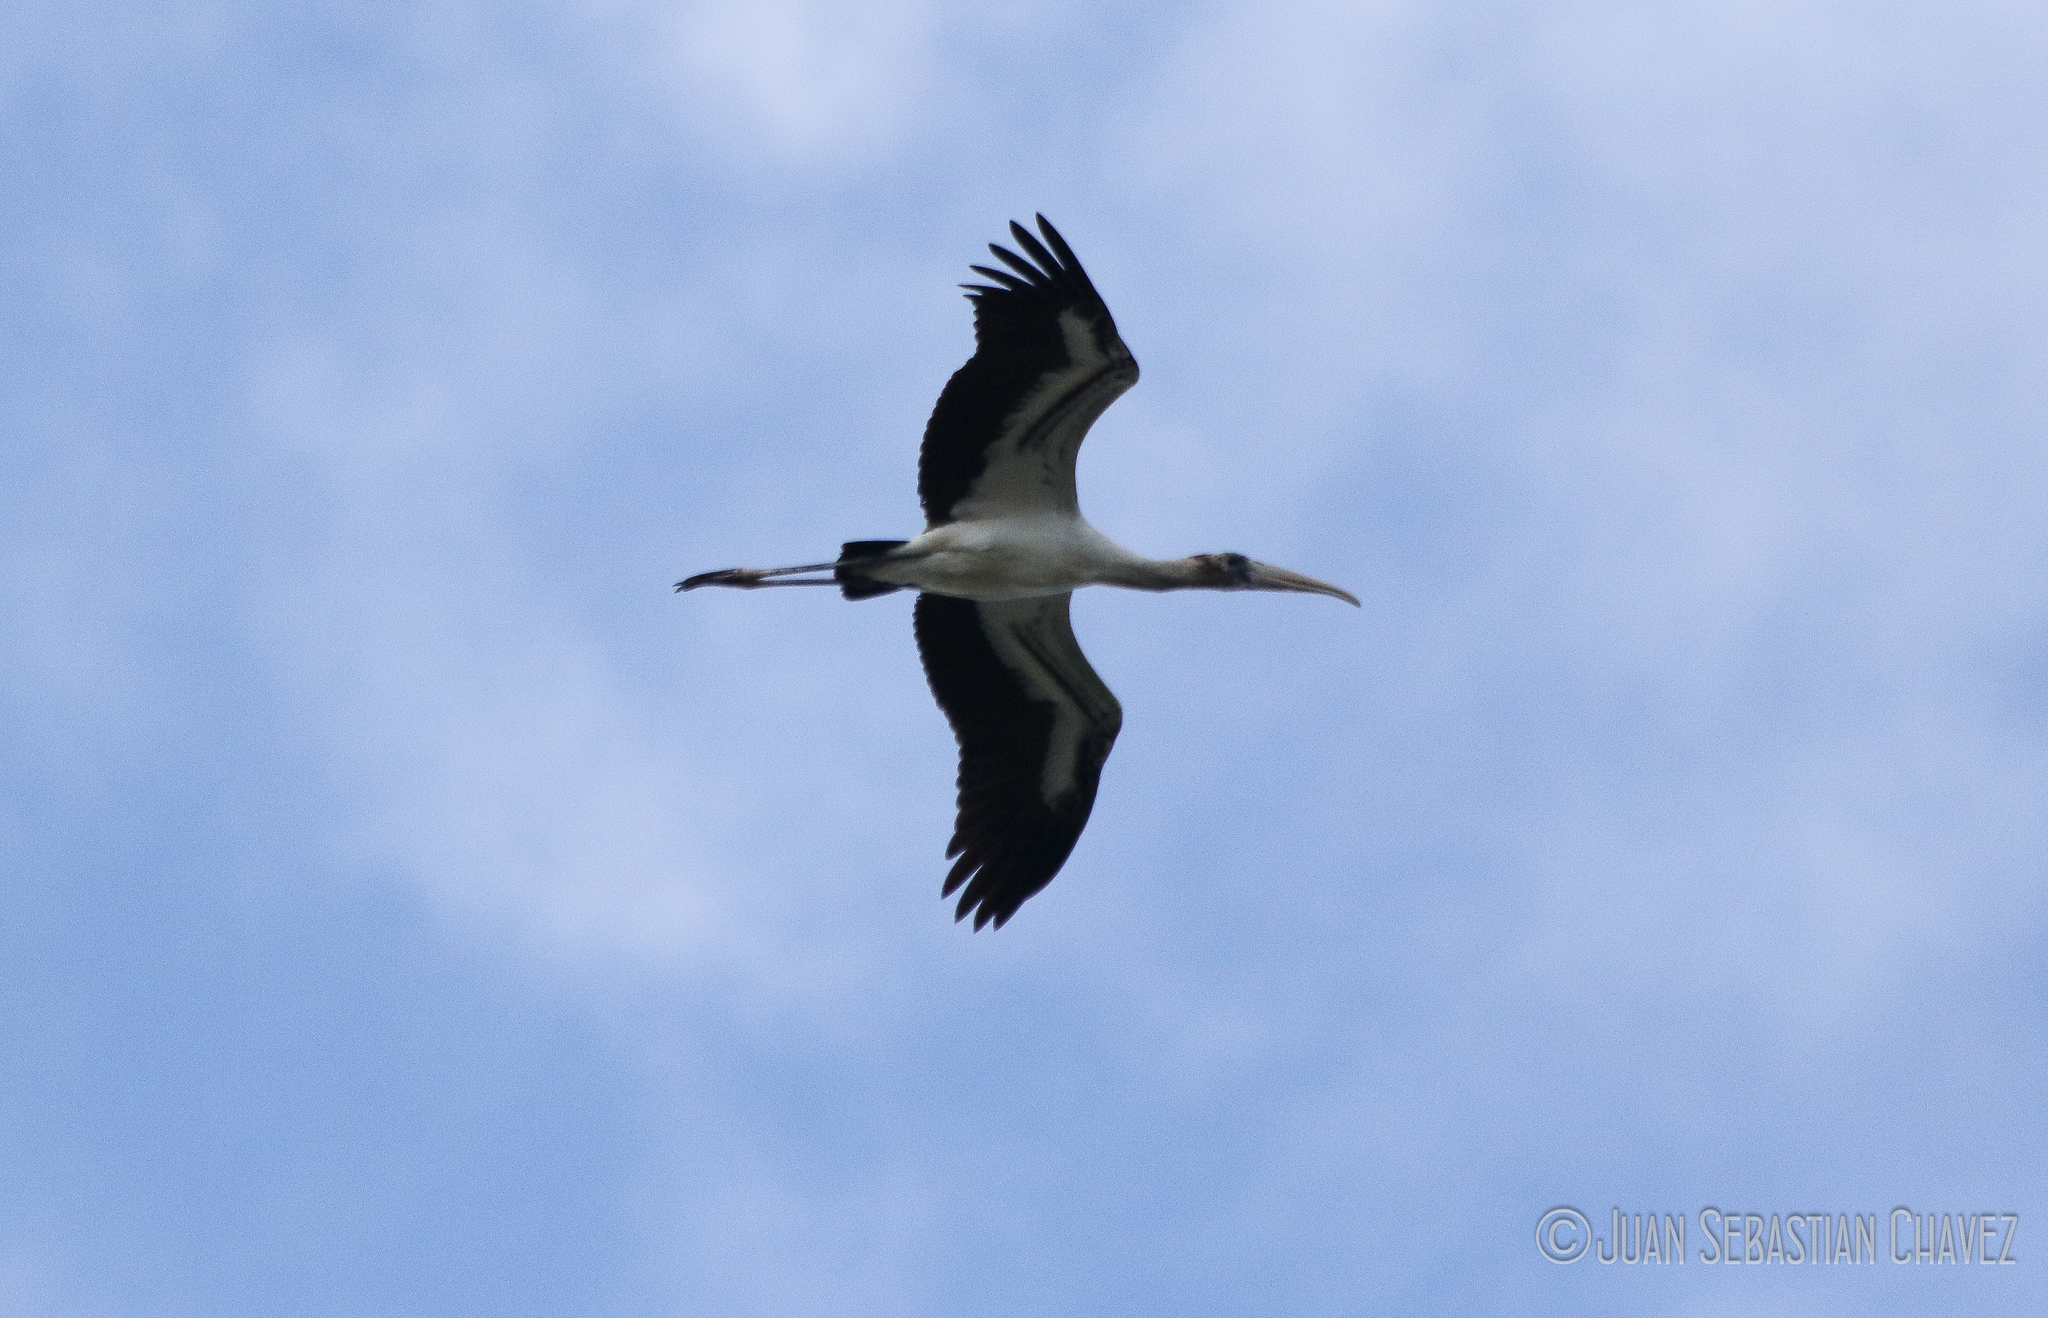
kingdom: Animalia
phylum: Chordata
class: Aves
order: Ciconiiformes
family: Ciconiidae
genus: Mycteria
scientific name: Mycteria americana
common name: Wood stork
